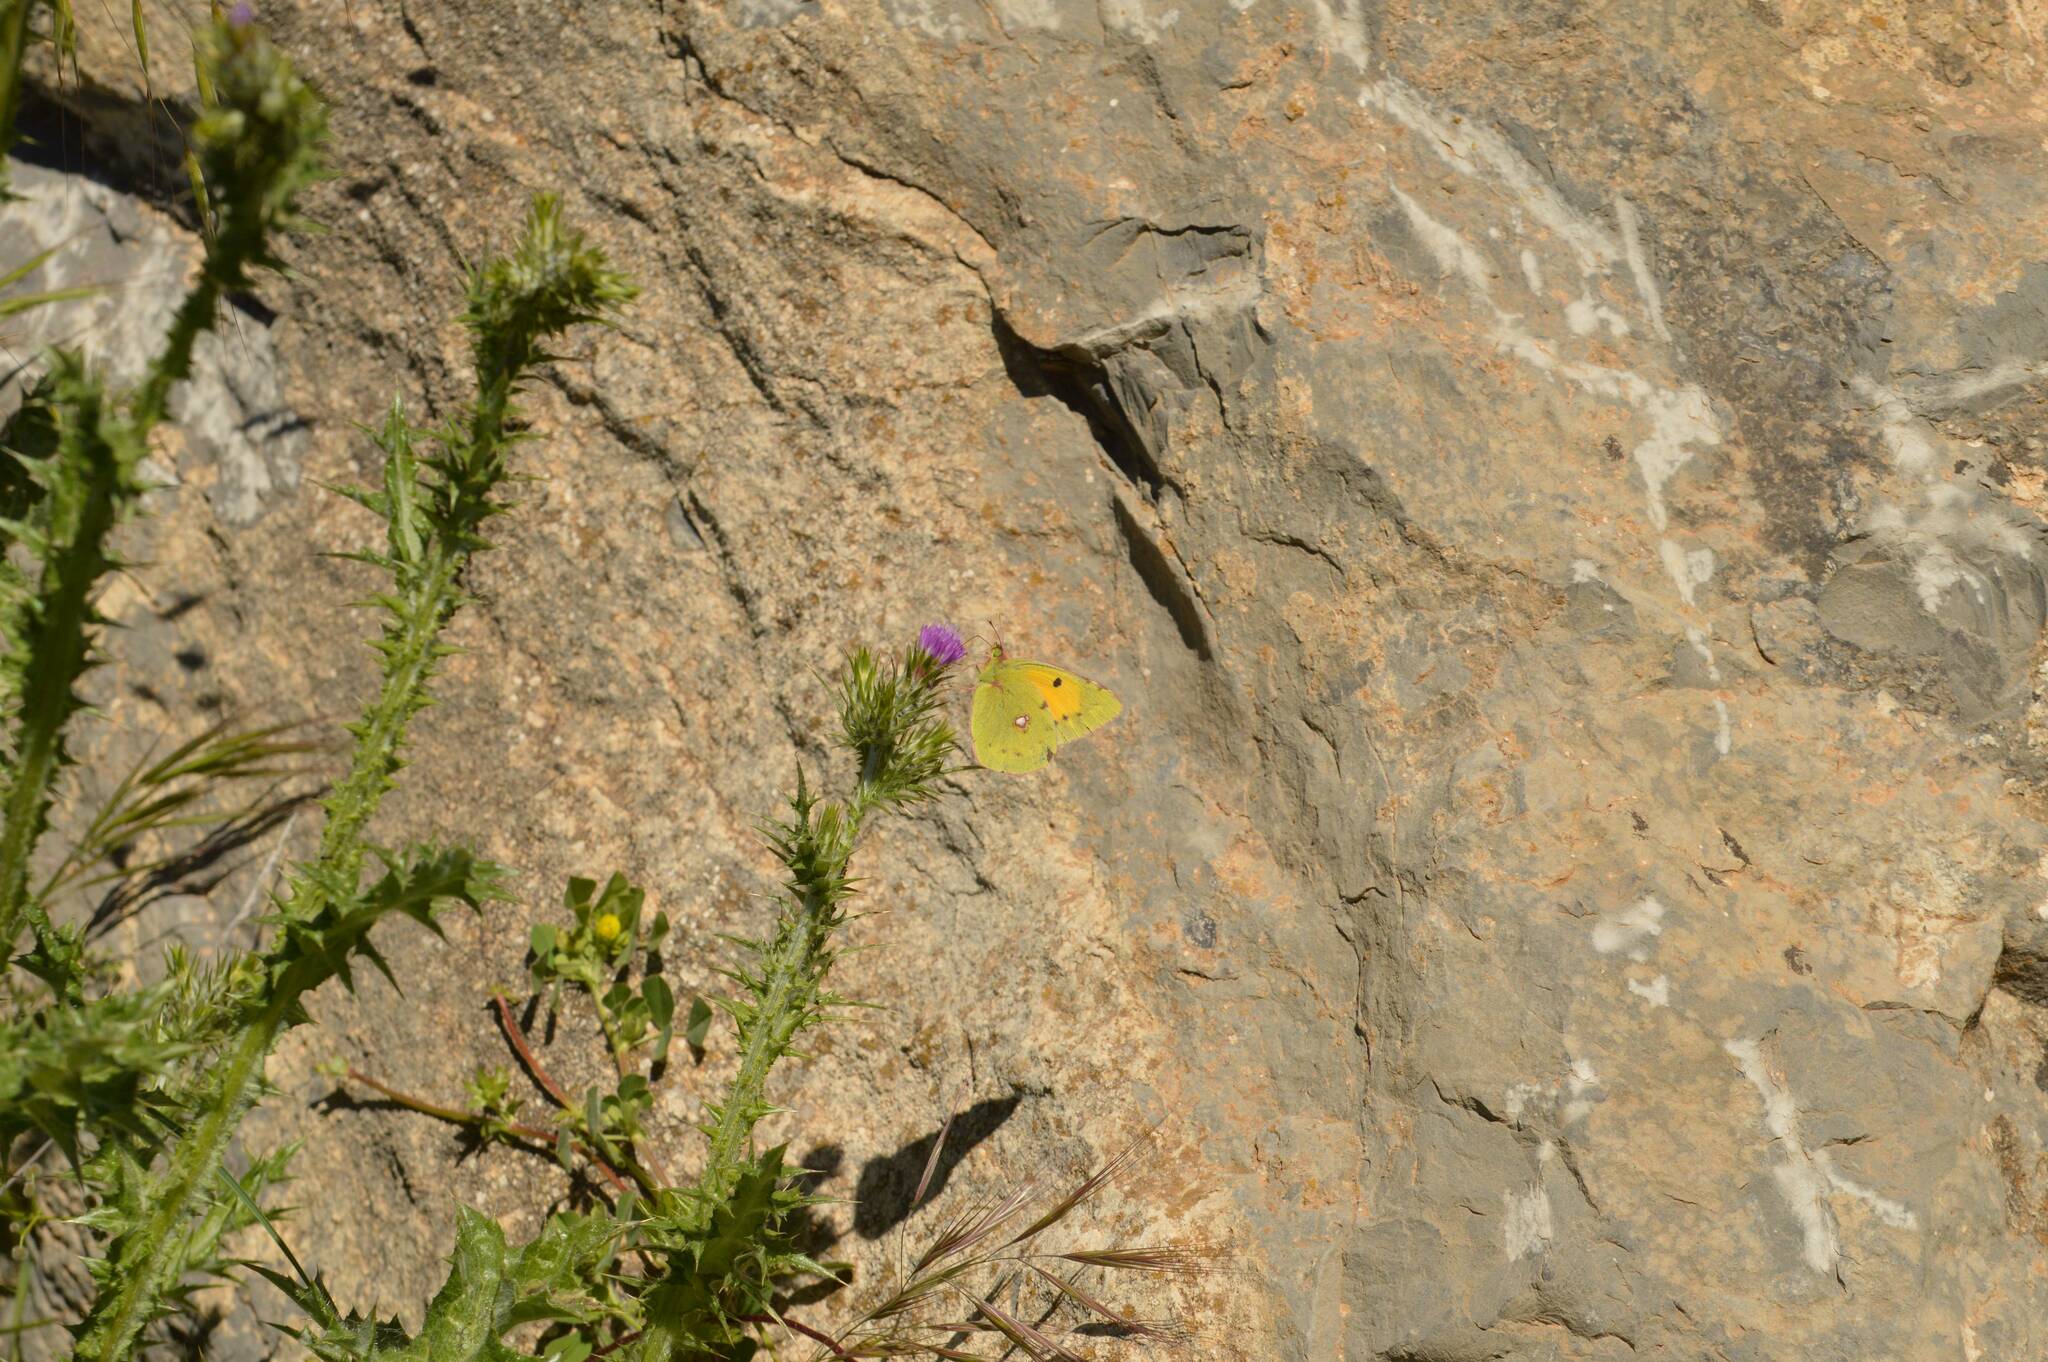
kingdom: Animalia
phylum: Arthropoda
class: Insecta
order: Lepidoptera
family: Pieridae
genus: Colias
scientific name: Colias croceus
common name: Clouded yellow
